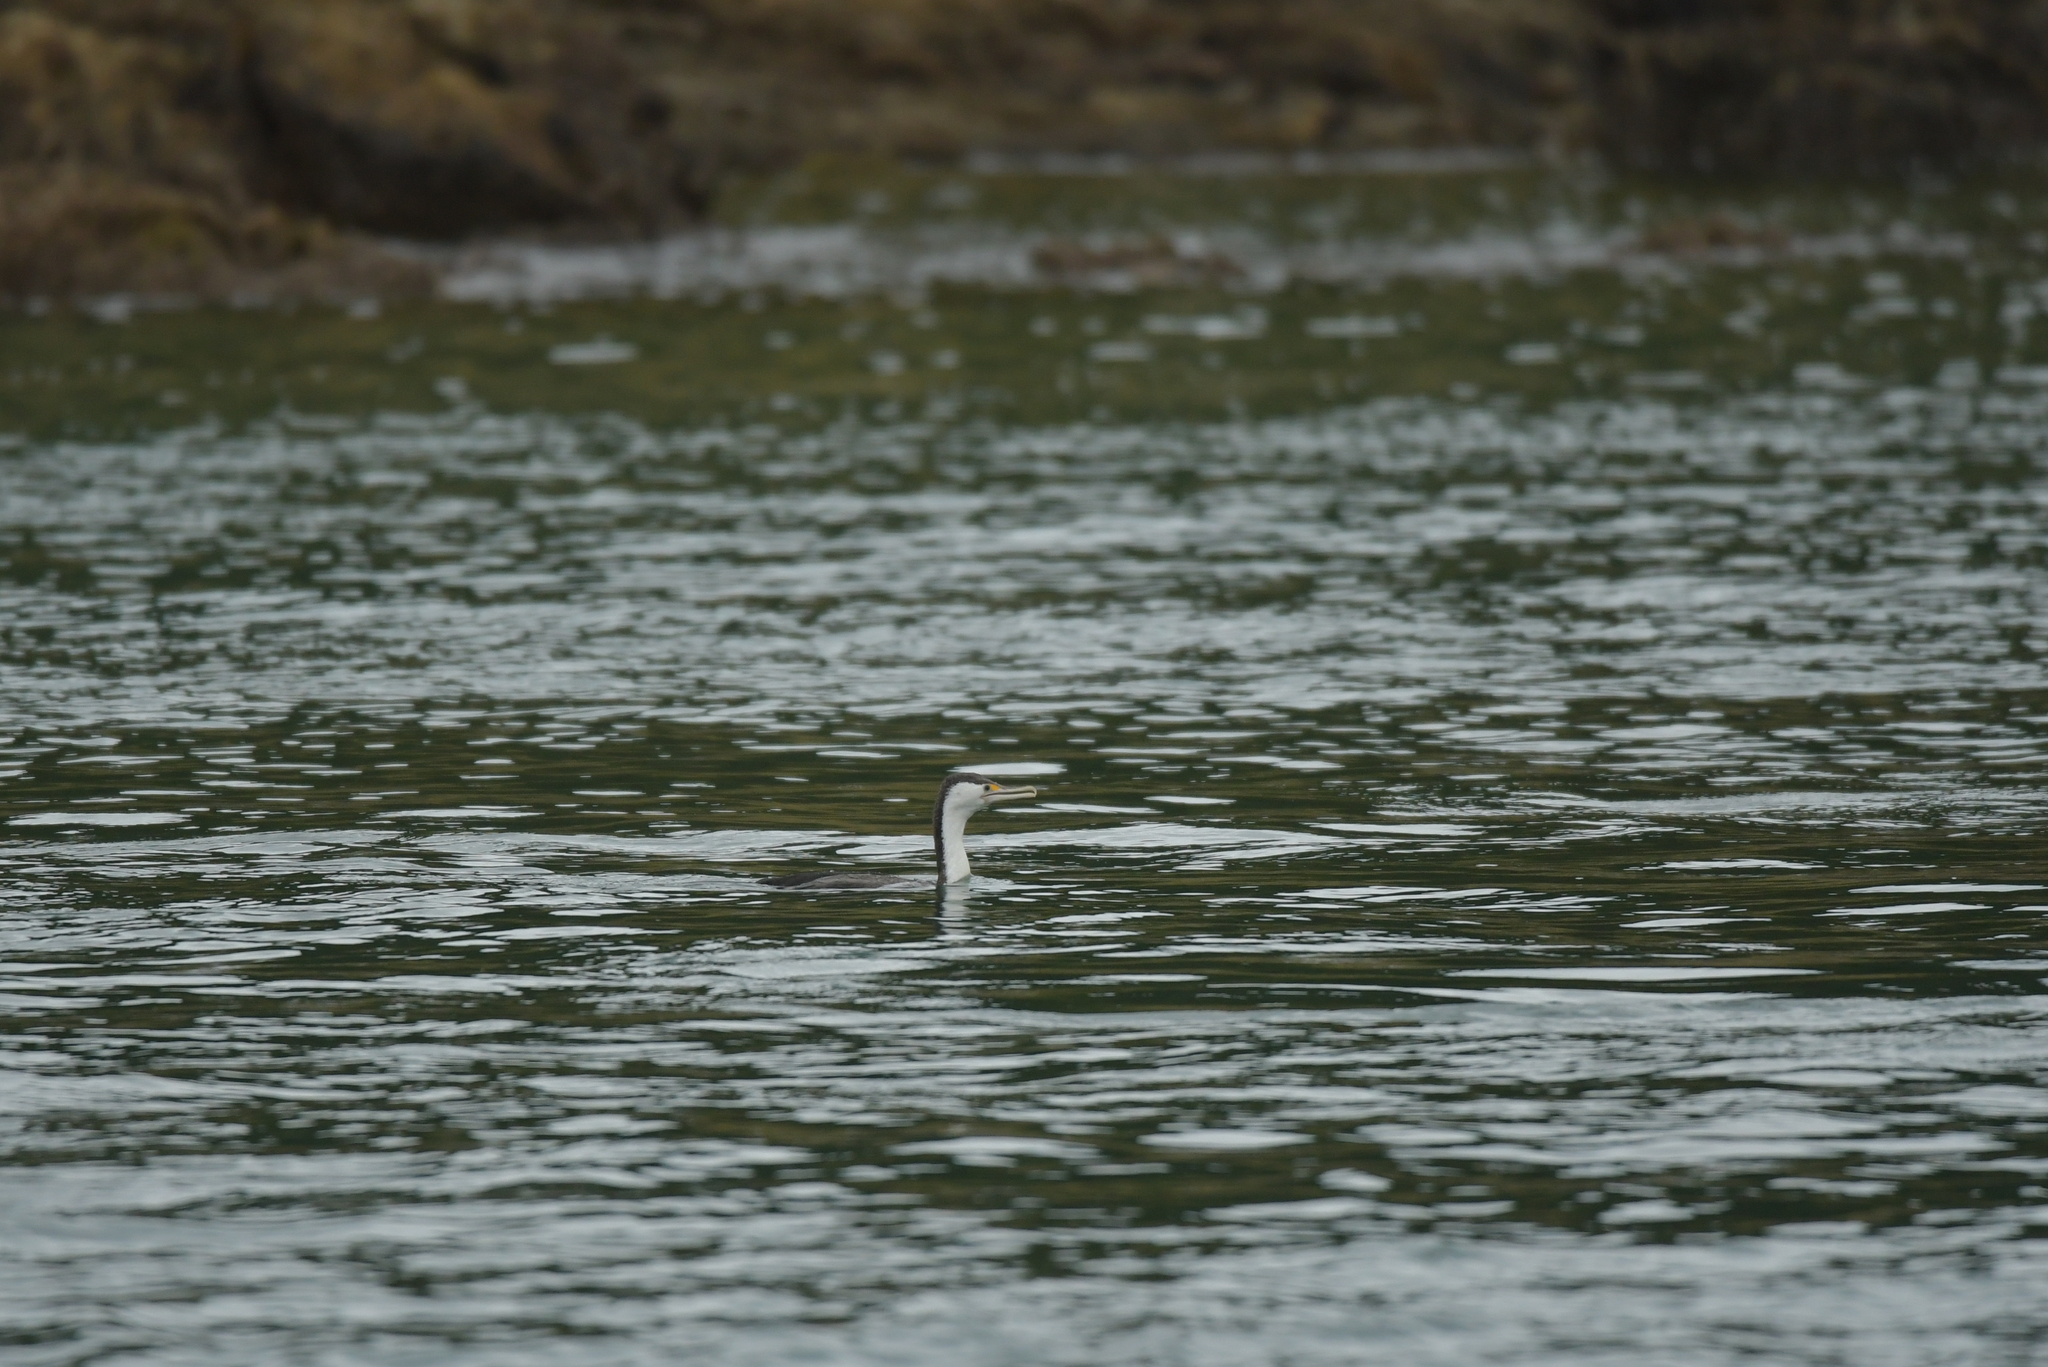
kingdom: Animalia
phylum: Chordata
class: Aves
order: Suliformes
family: Phalacrocoracidae
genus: Phalacrocorax
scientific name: Phalacrocorax varius
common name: Pied cormorant
